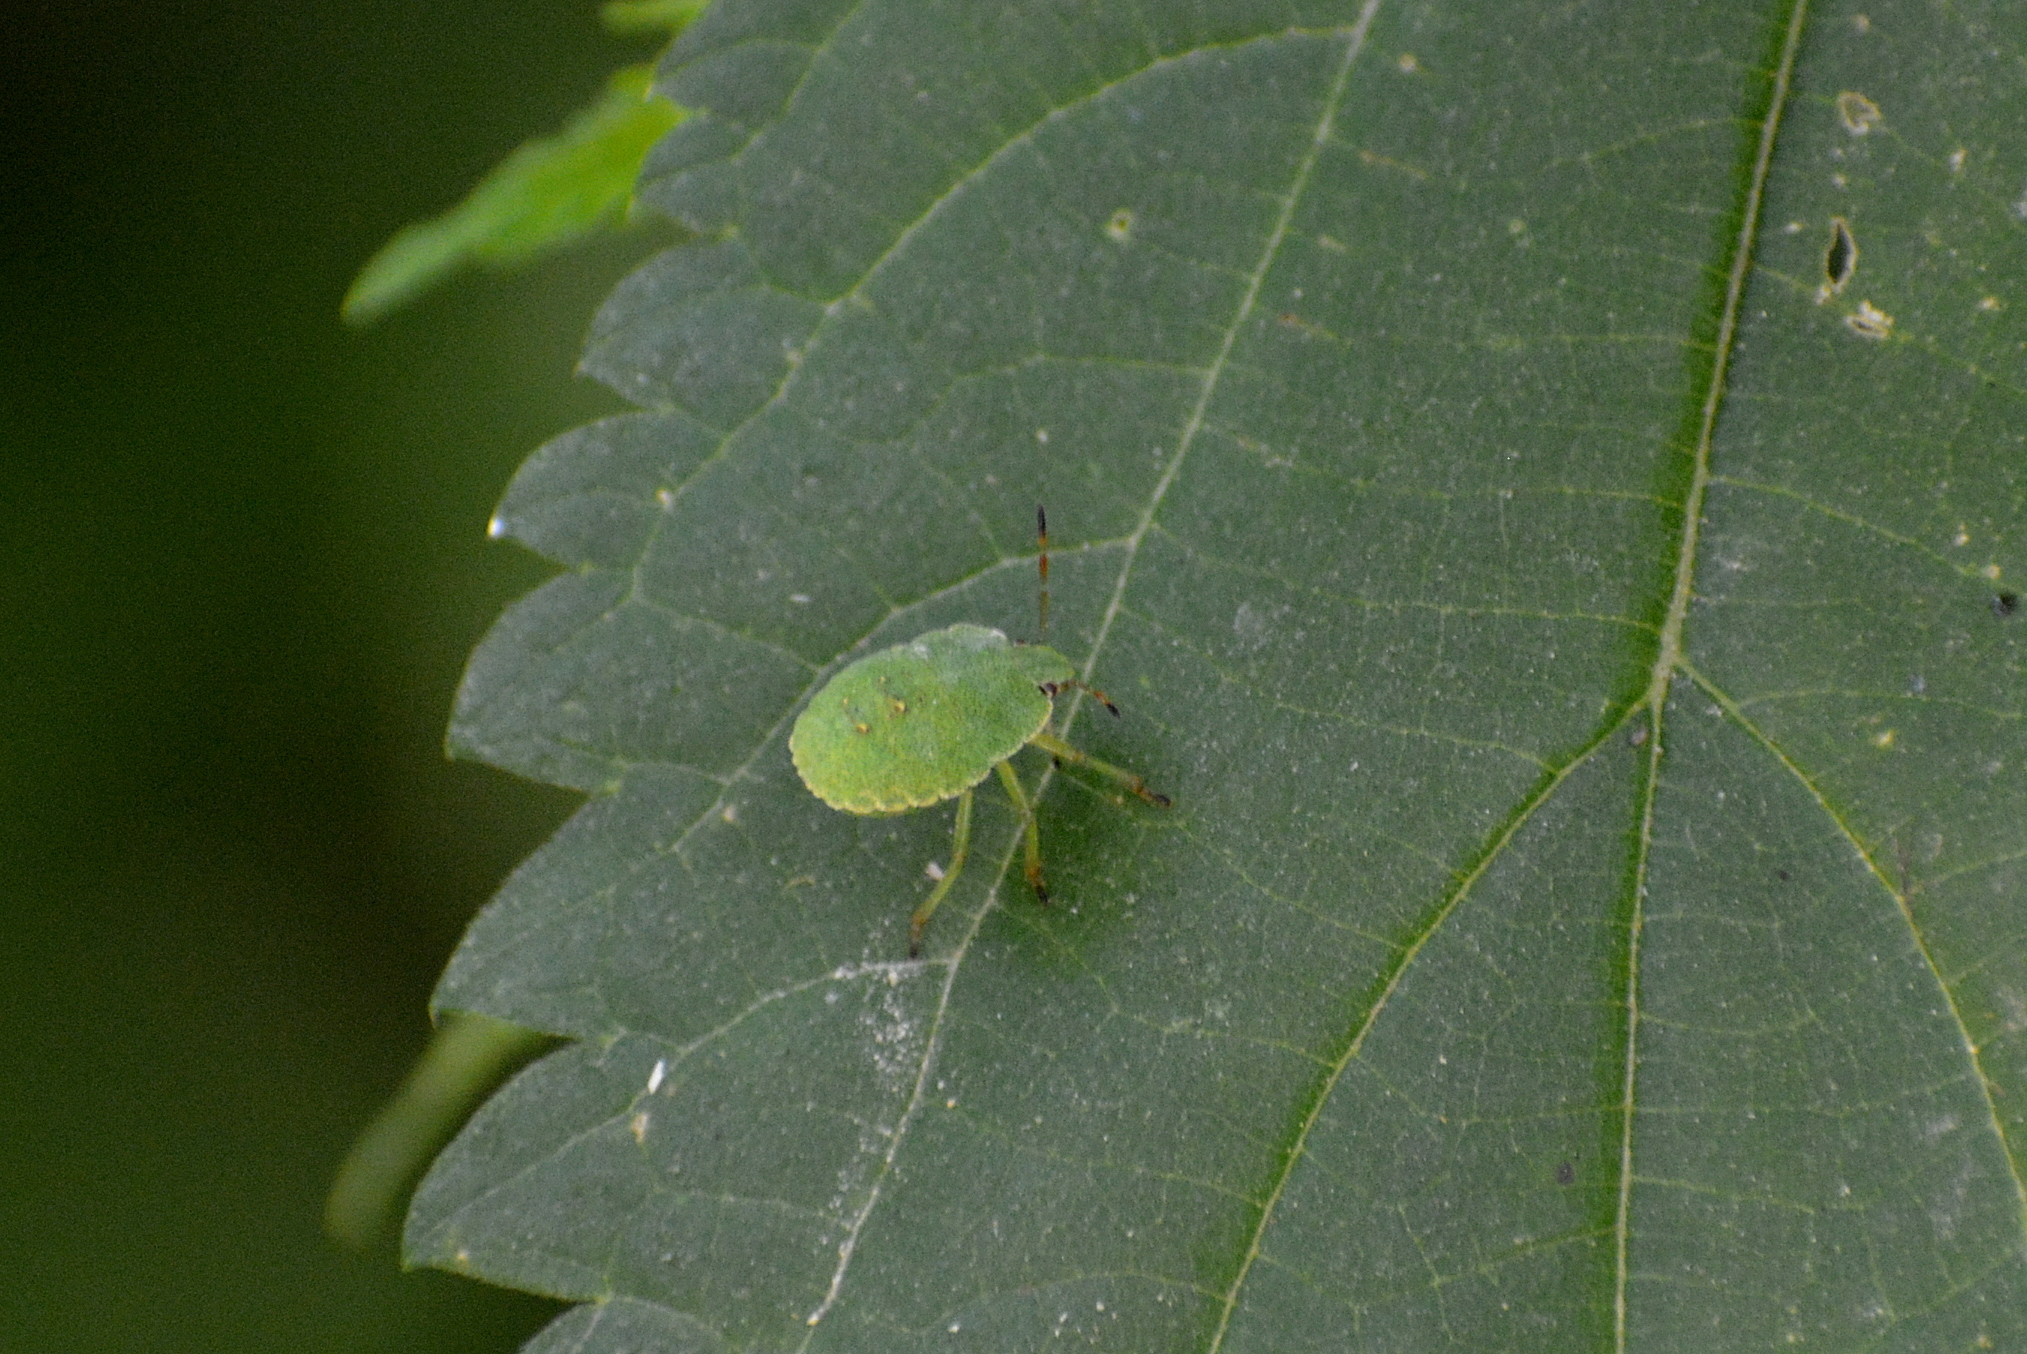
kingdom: Animalia
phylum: Arthropoda
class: Insecta
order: Hemiptera
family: Pentatomidae
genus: Palomena
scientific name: Palomena prasina
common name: Green shieldbug
